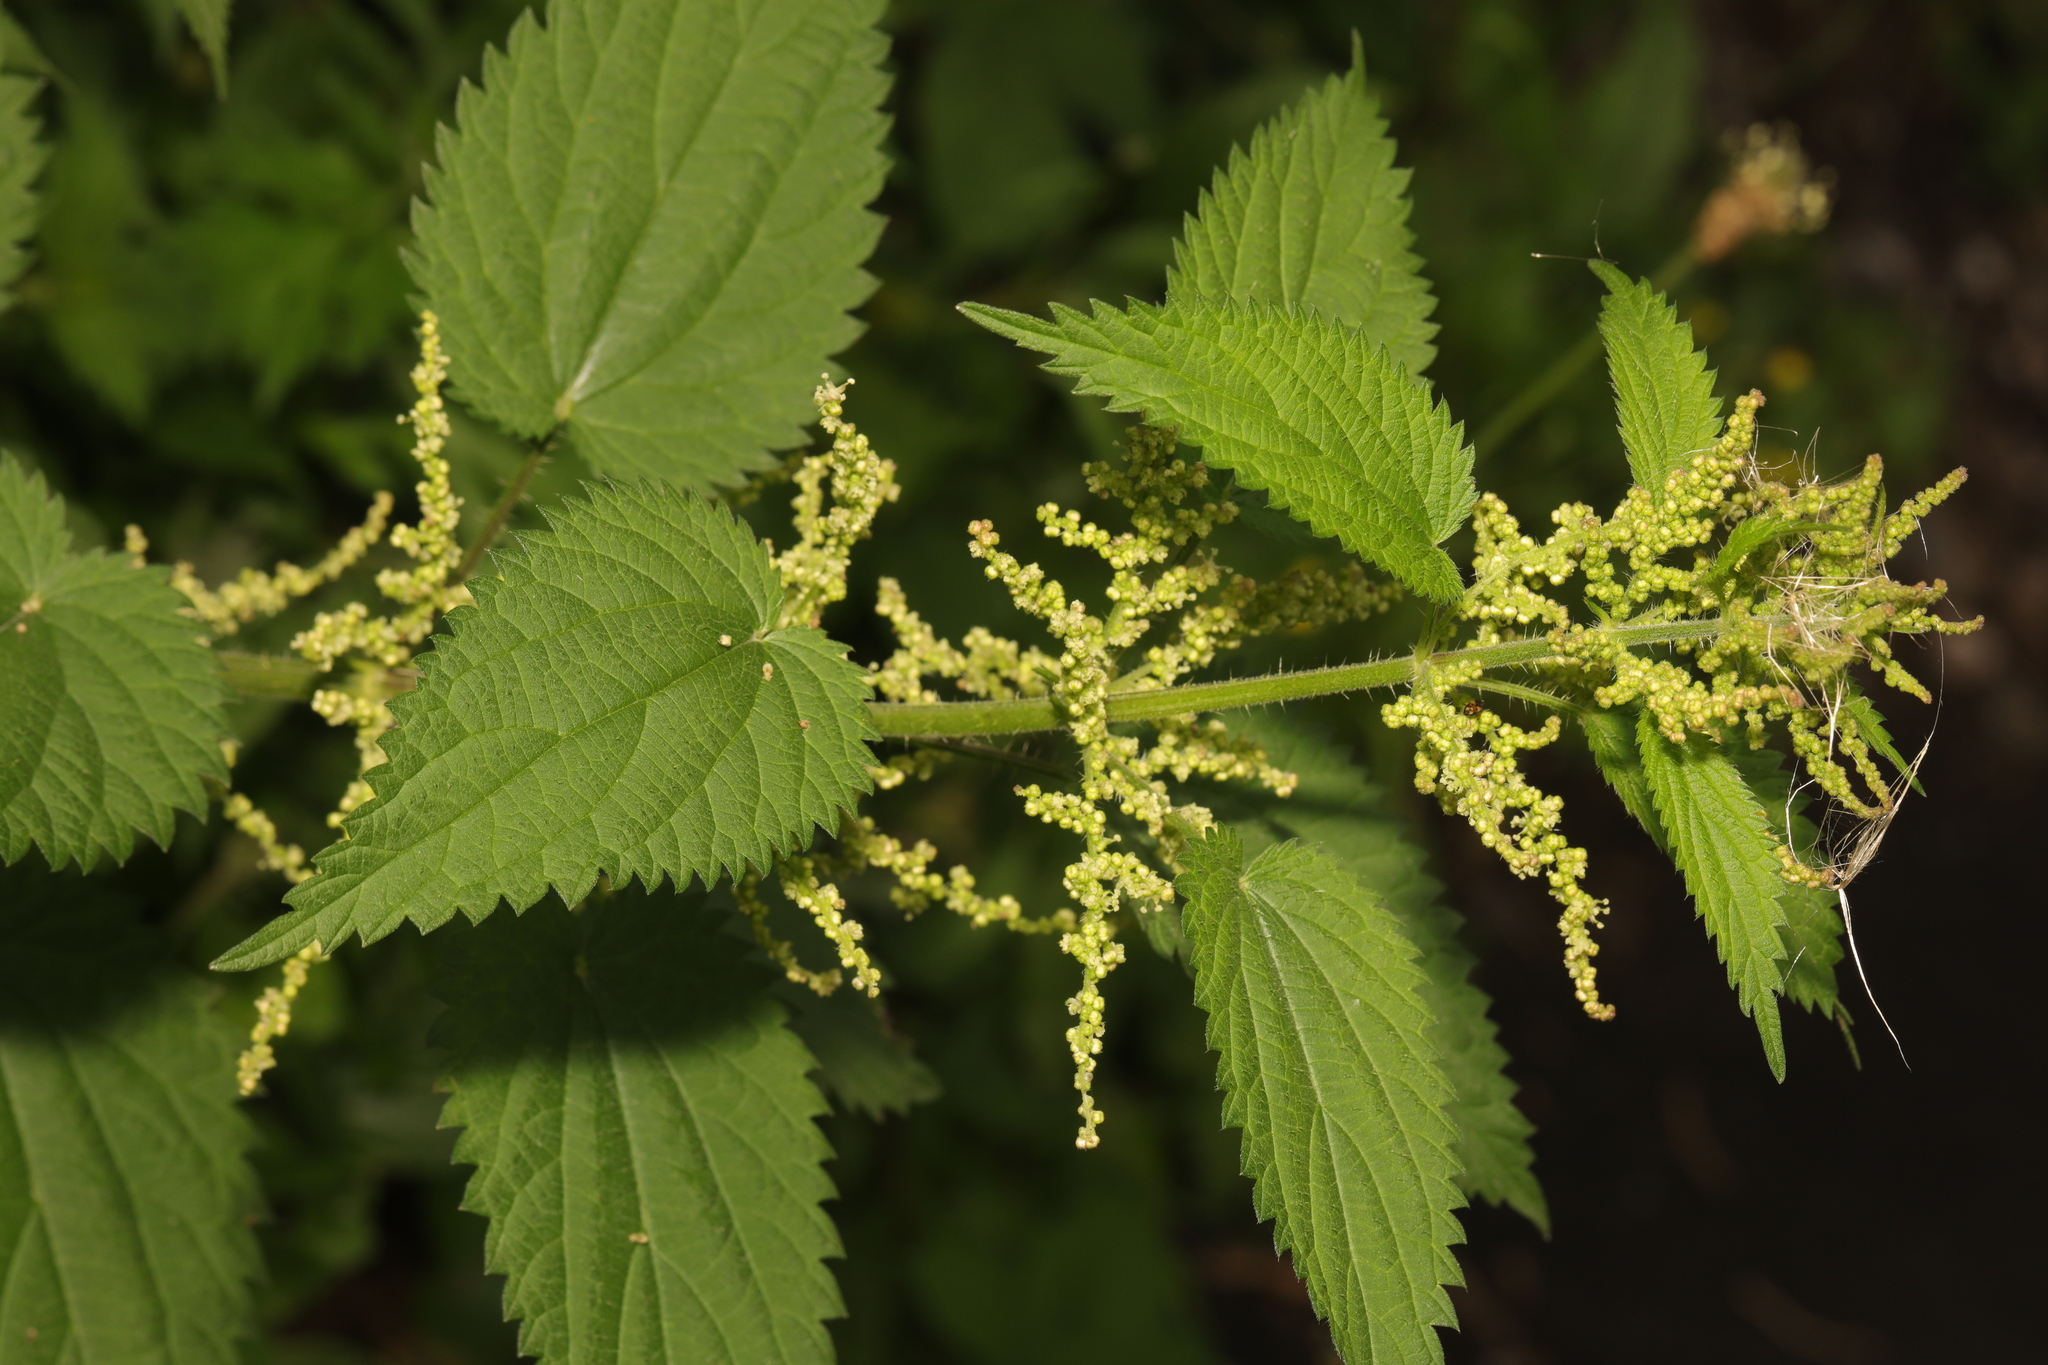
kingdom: Plantae
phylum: Tracheophyta
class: Magnoliopsida
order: Rosales
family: Urticaceae
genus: Urtica
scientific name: Urtica dioica
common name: Common nettle
